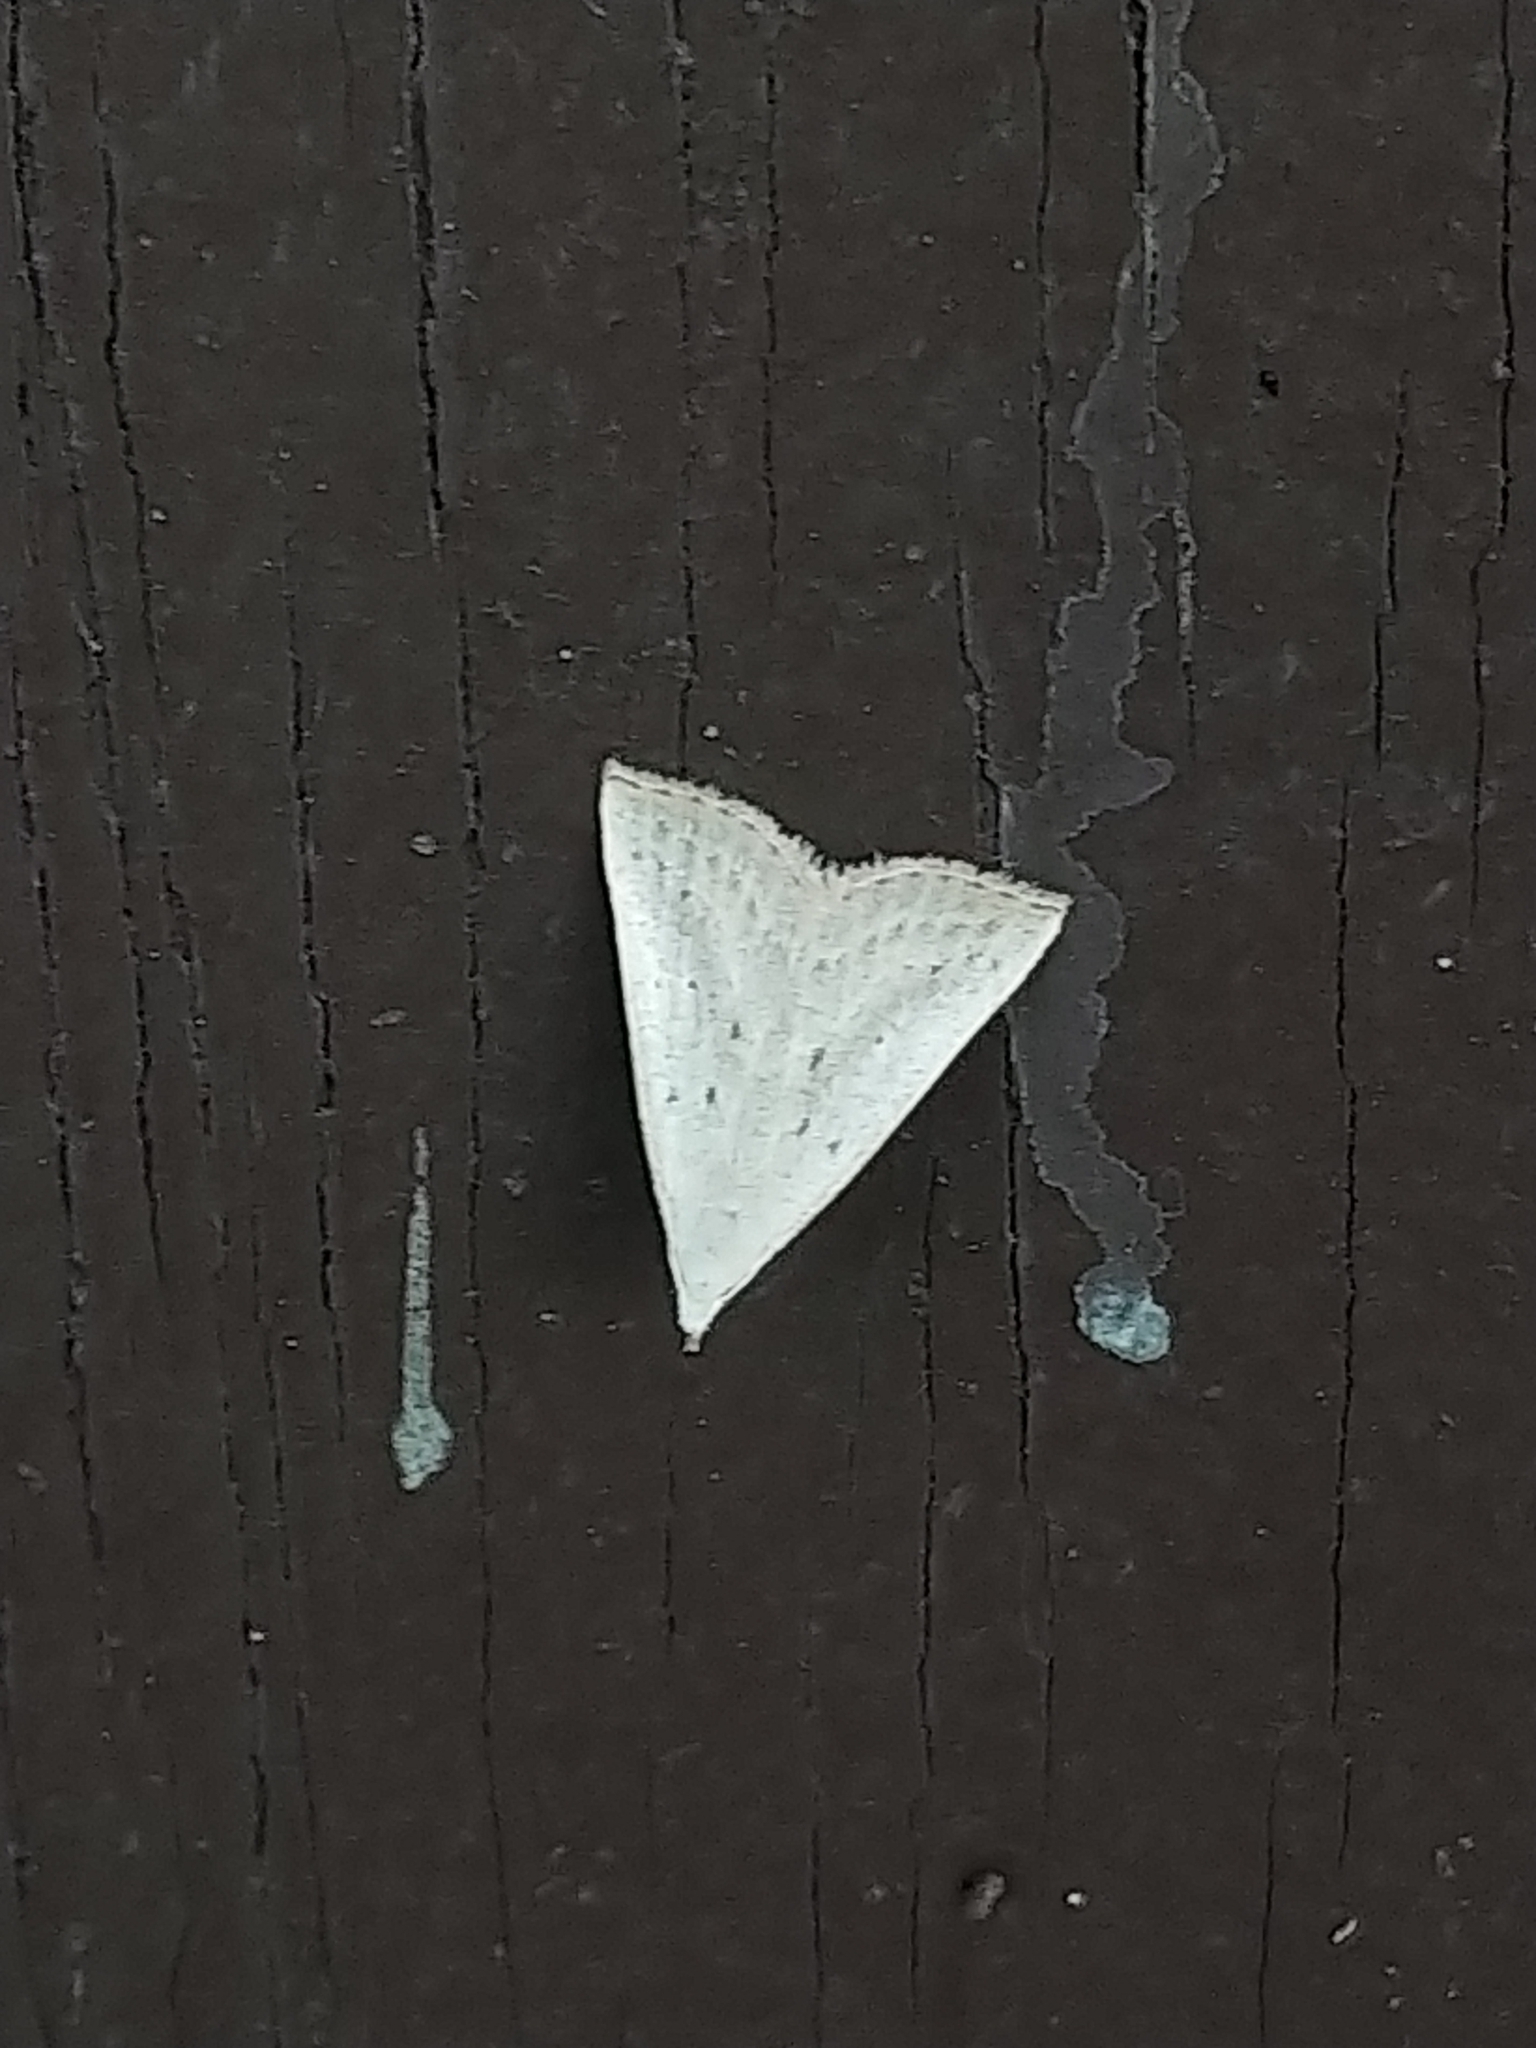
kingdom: Animalia
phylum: Arthropoda
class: Insecta
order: Lepidoptera
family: Erebidae
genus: Macrochilo
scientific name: Macrochilo louisiana
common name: Louisiana macrochilo
